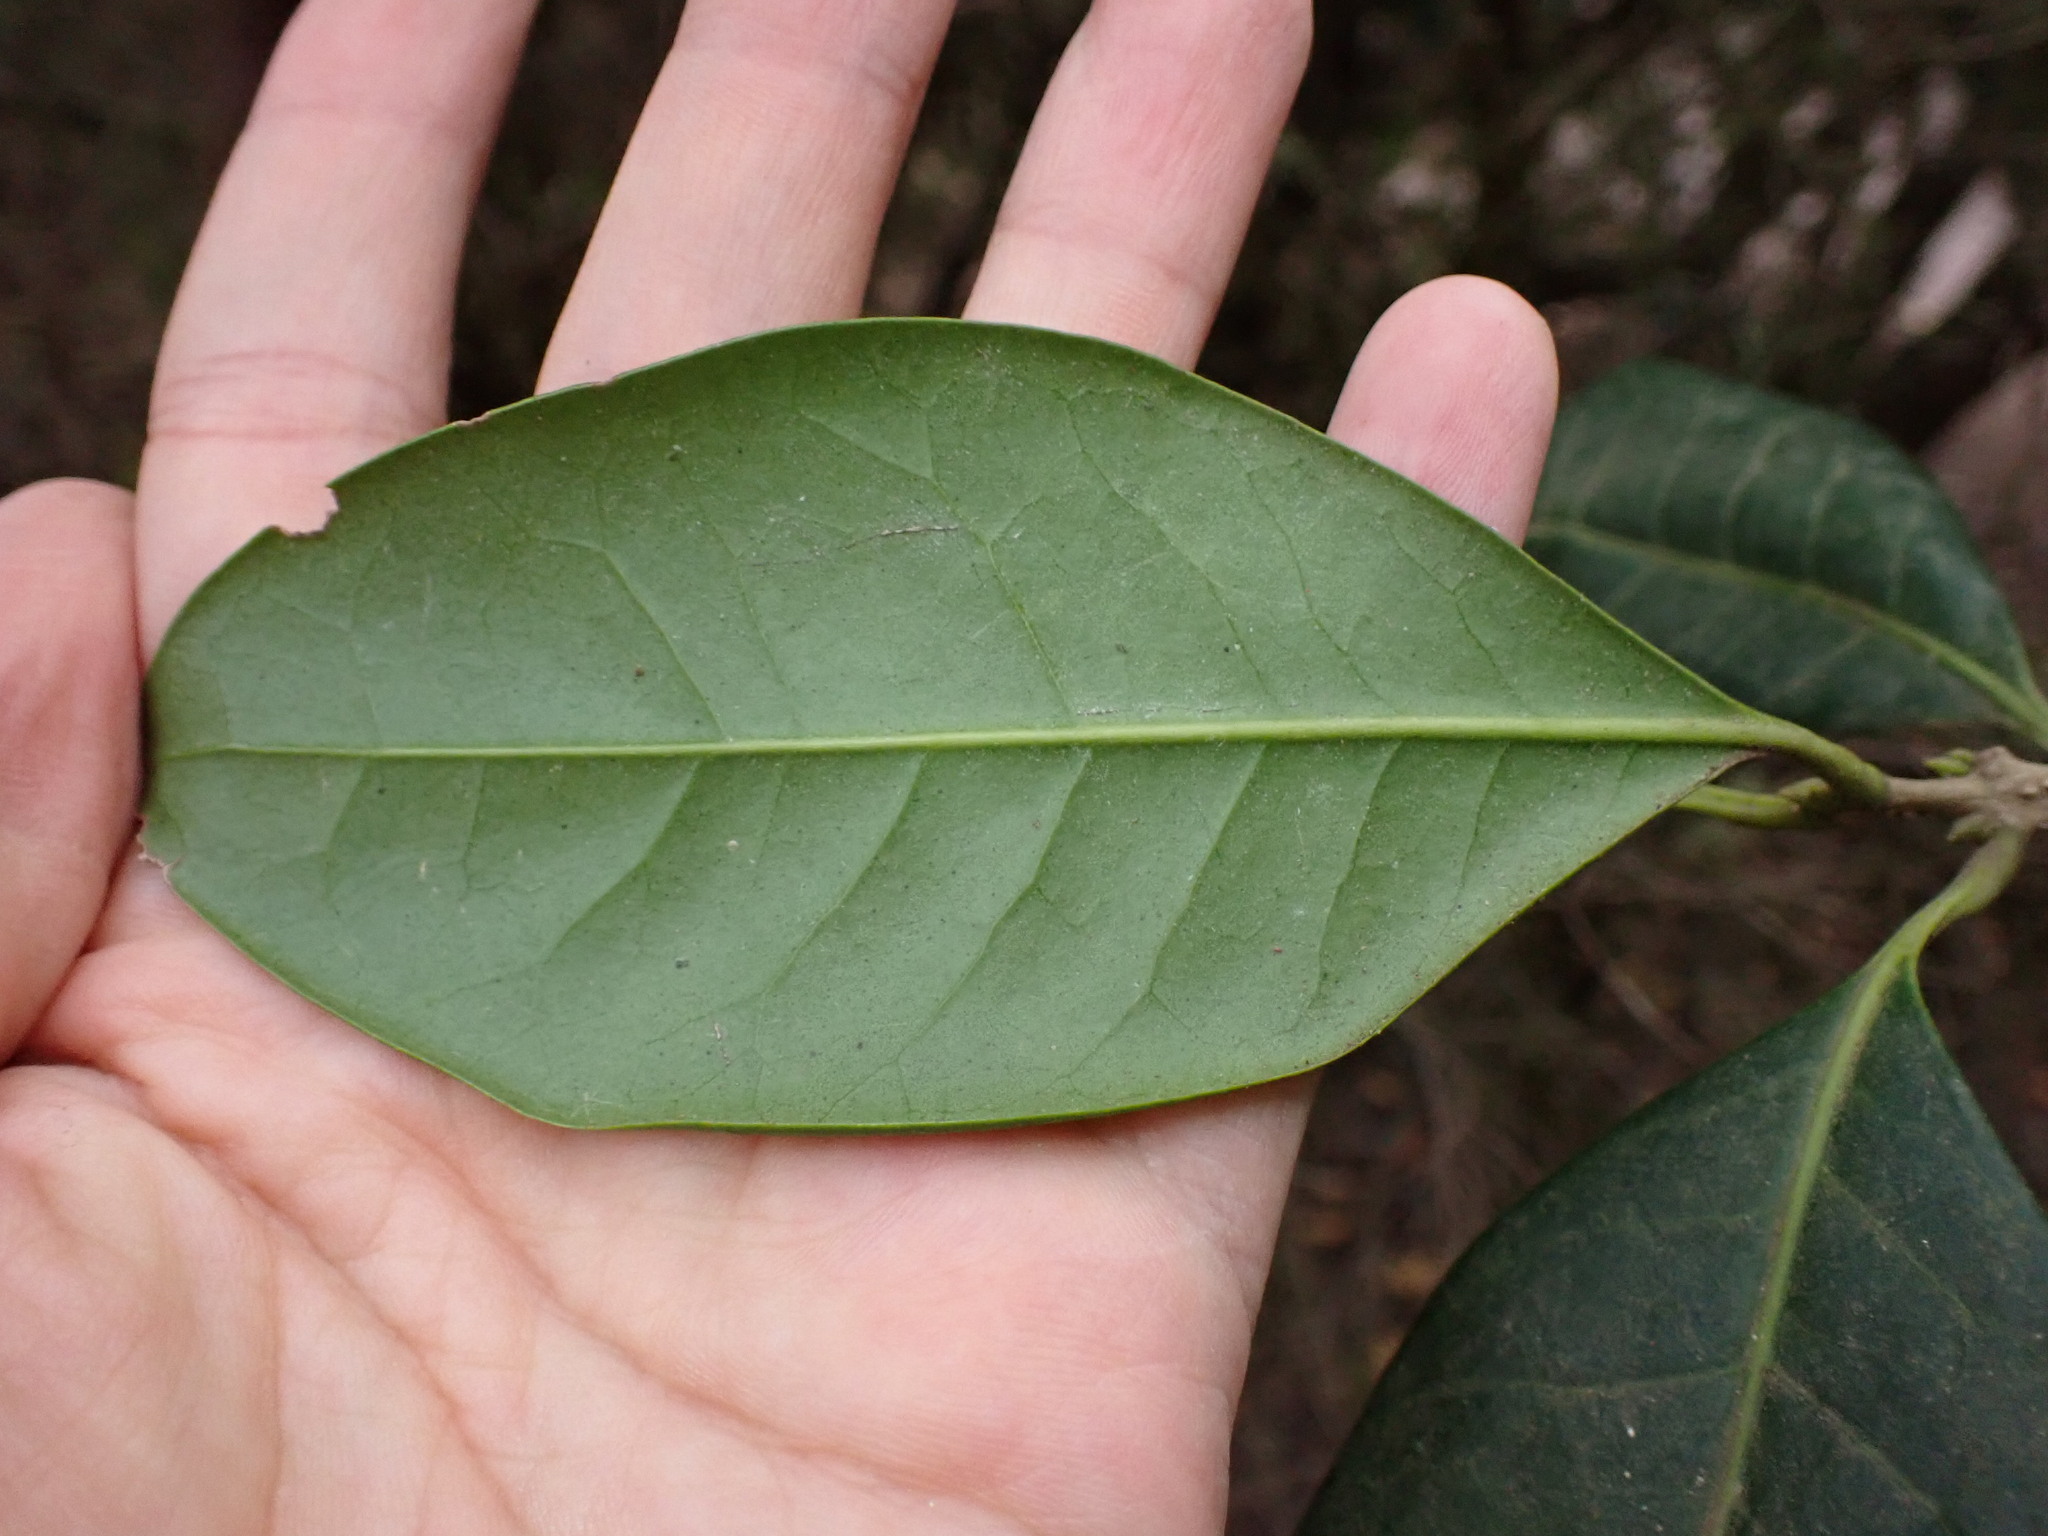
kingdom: Plantae
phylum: Tracheophyta
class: Magnoliopsida
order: Lamiales
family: Oleaceae
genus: Picconia
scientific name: Picconia excelsa
